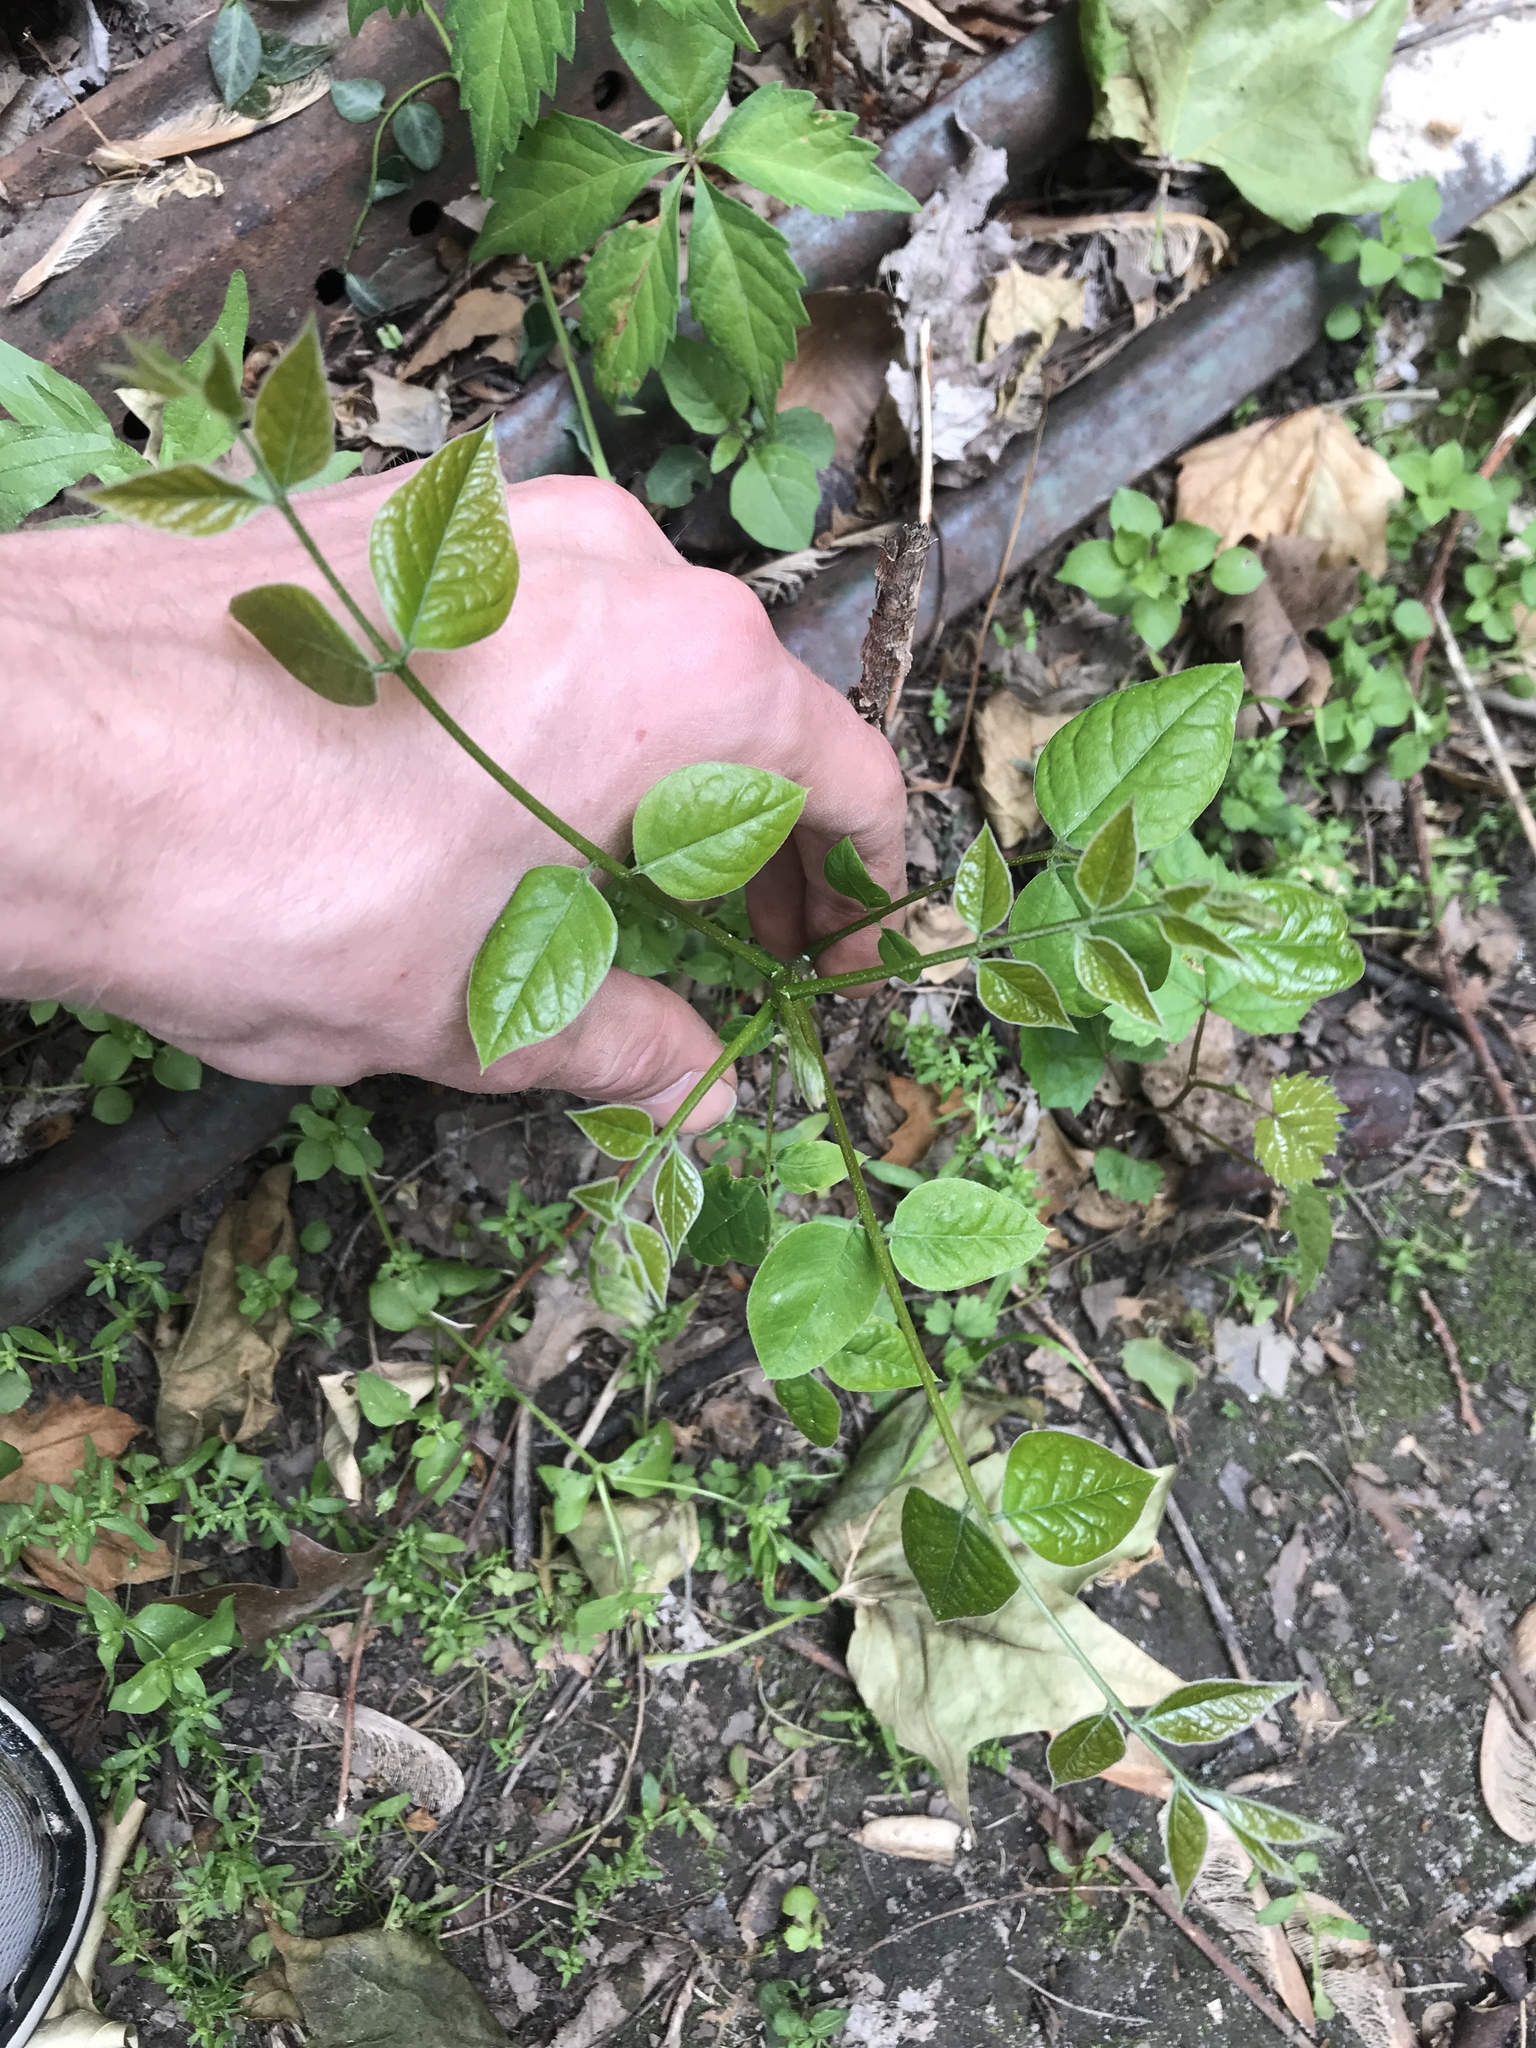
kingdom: Plantae
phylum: Tracheophyta
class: Magnoliopsida
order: Fabales
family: Fabaceae
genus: Gymnocladus
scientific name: Gymnocladus dioicus
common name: Kentucky coffee-tree
